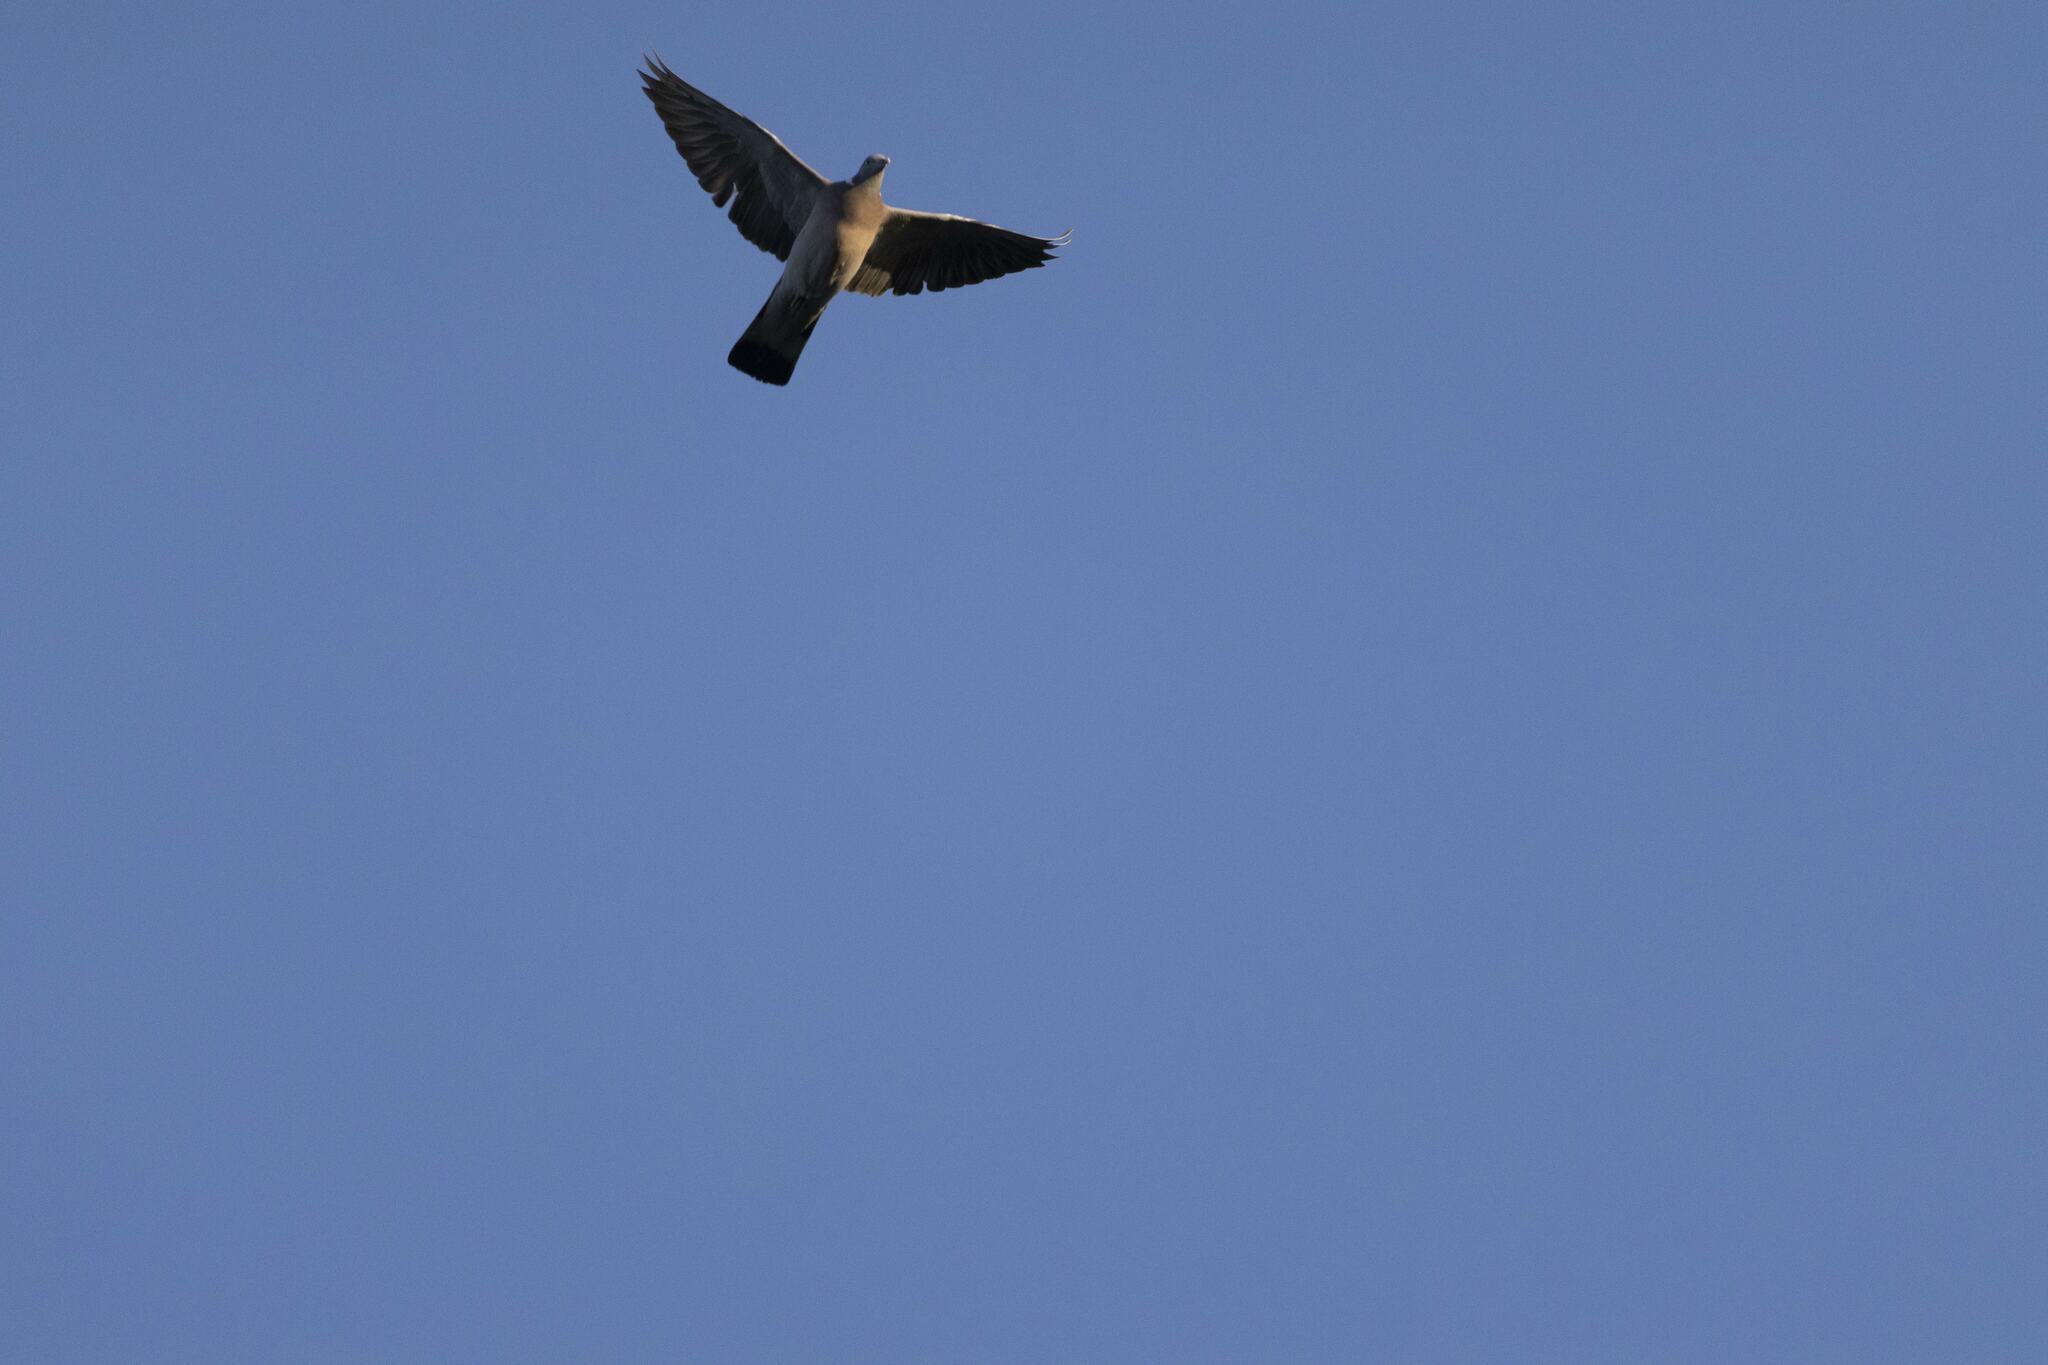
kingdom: Animalia
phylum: Chordata
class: Aves
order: Columbiformes
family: Columbidae
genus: Columba
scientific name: Columba palumbus
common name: Common wood pigeon
